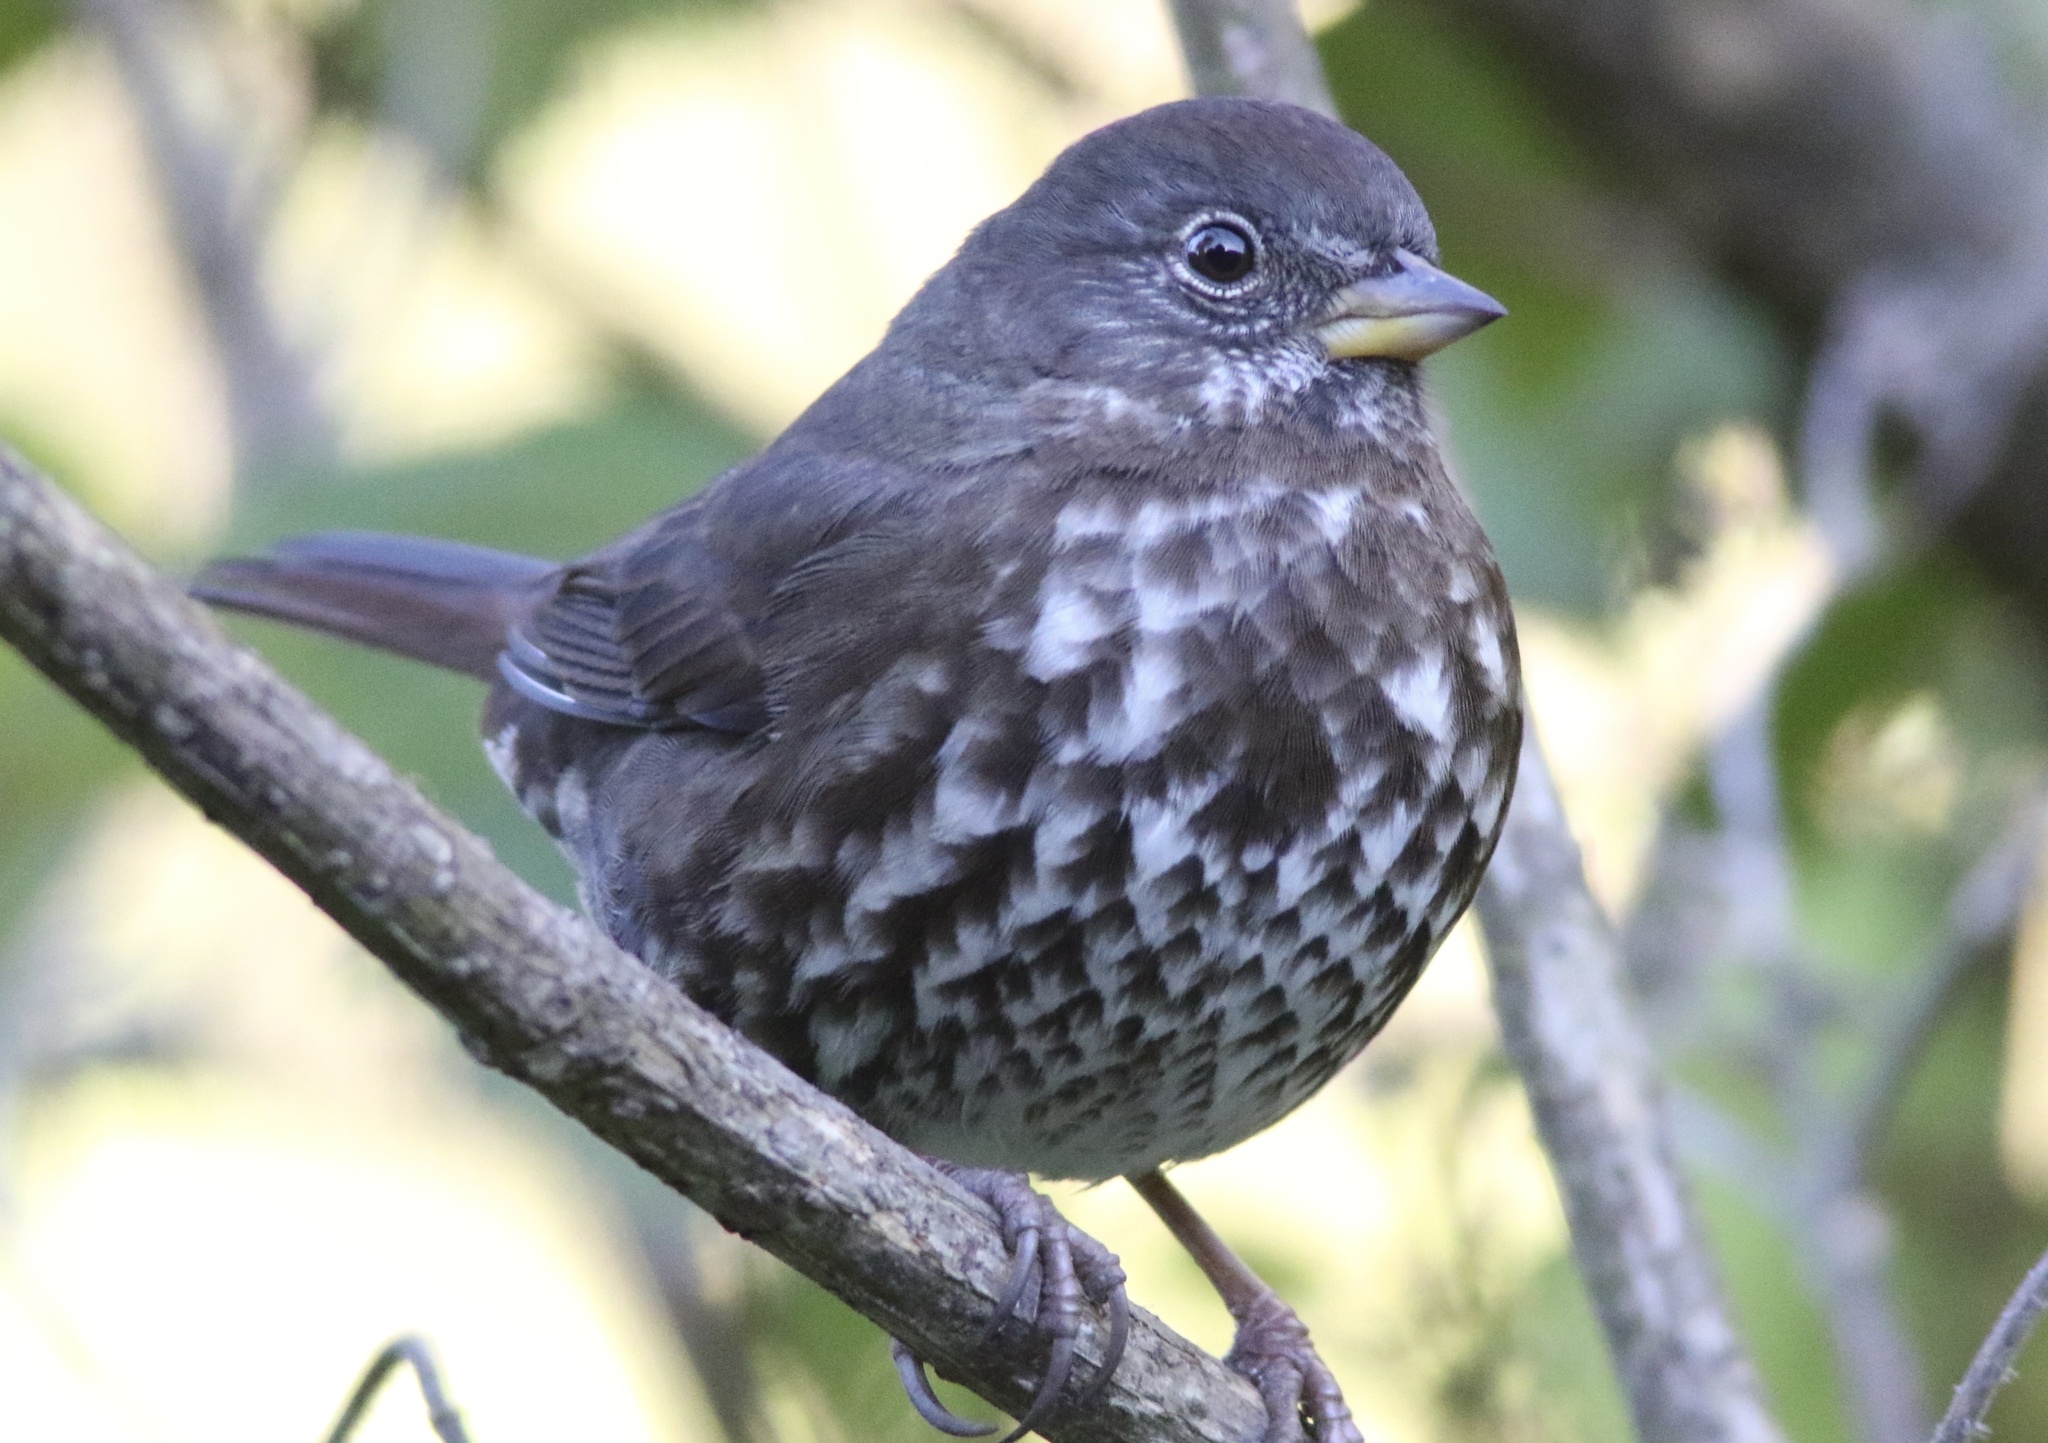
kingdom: Animalia
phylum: Chordata
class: Aves
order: Passeriformes
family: Passerellidae
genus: Passerella
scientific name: Passerella iliaca
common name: Fox sparrow
